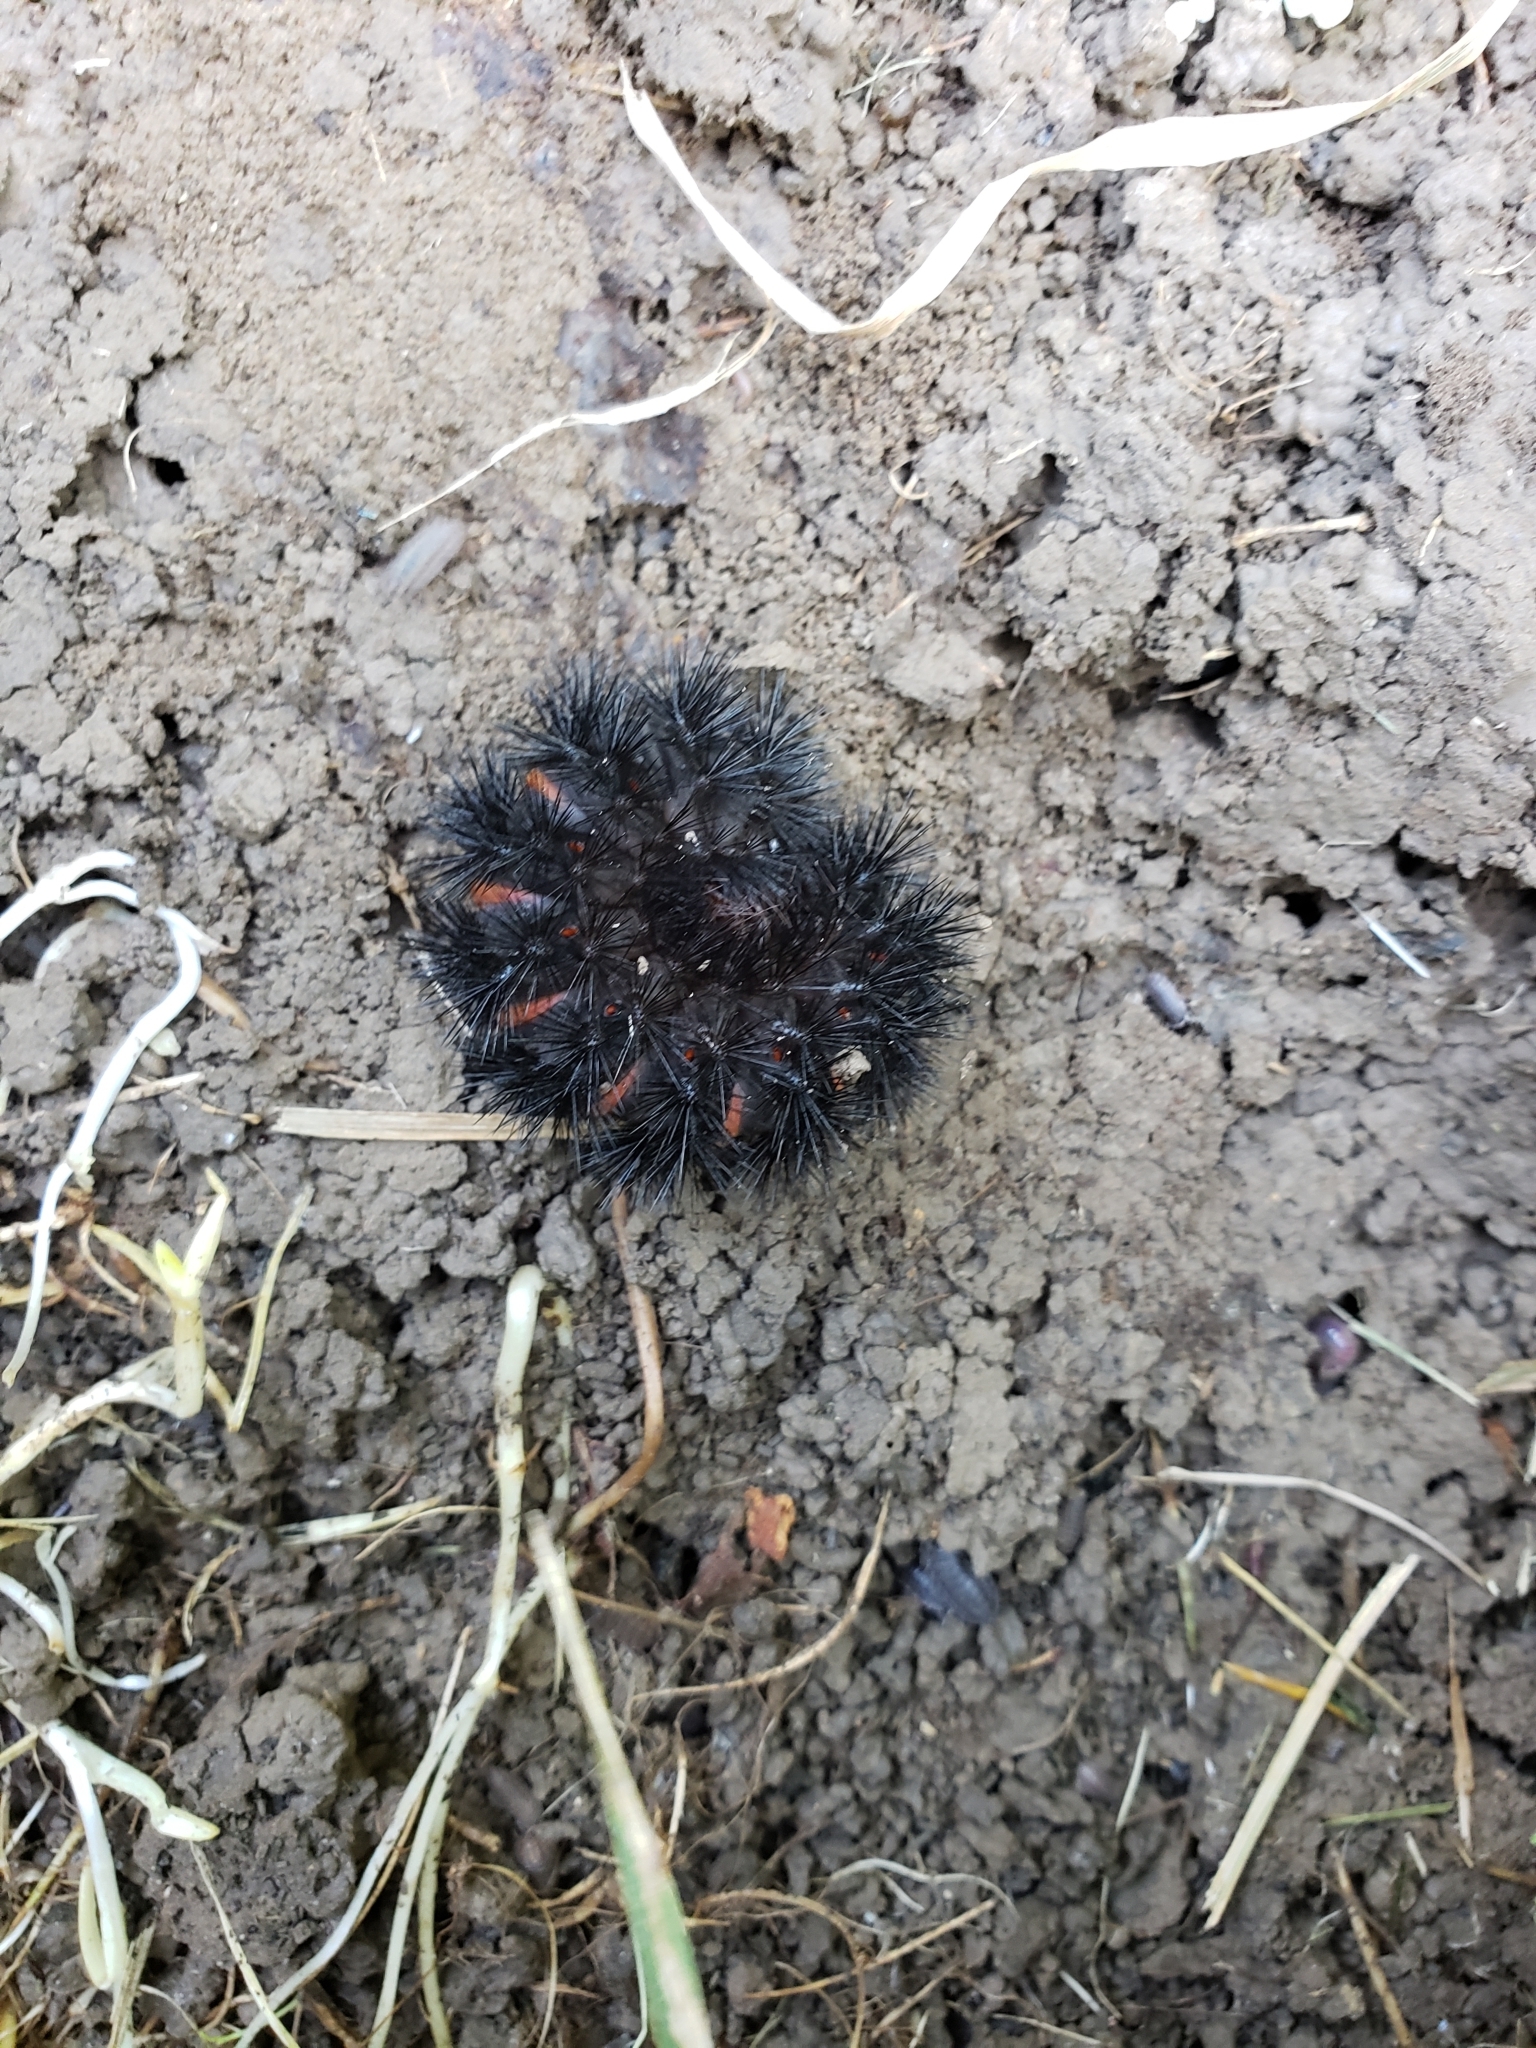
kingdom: Animalia
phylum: Arthropoda
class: Insecta
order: Lepidoptera
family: Erebidae
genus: Hypercompe
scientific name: Hypercompe scribonia
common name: Giant leopard moth
